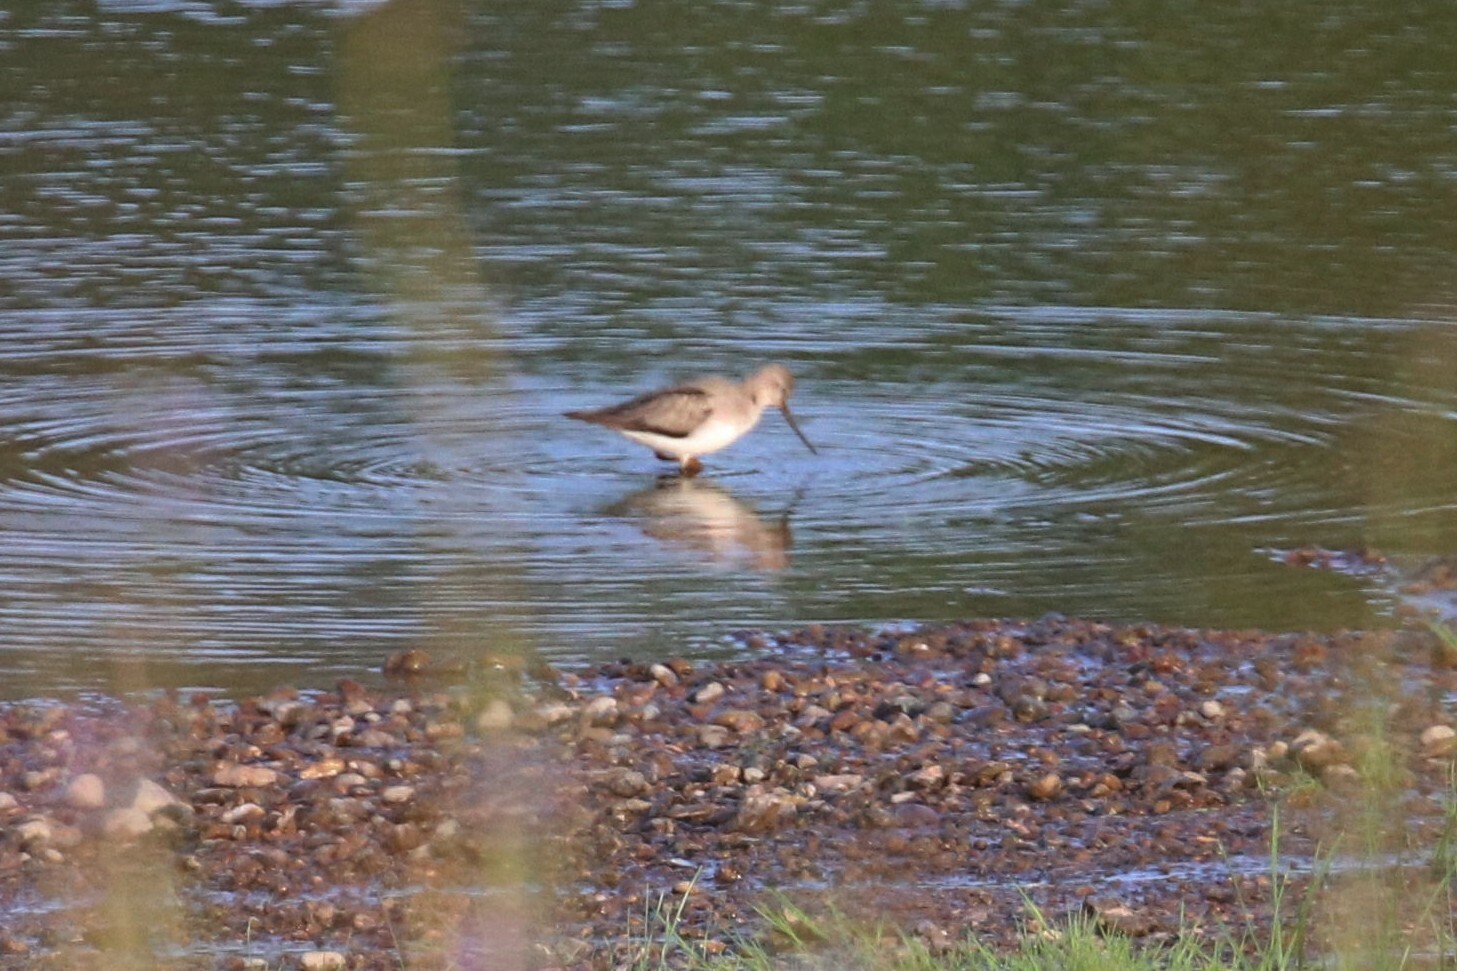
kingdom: Animalia
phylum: Chordata
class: Aves
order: Charadriiformes
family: Scolopacidae
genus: Xenus
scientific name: Xenus cinereus
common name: Terek sandpiper
